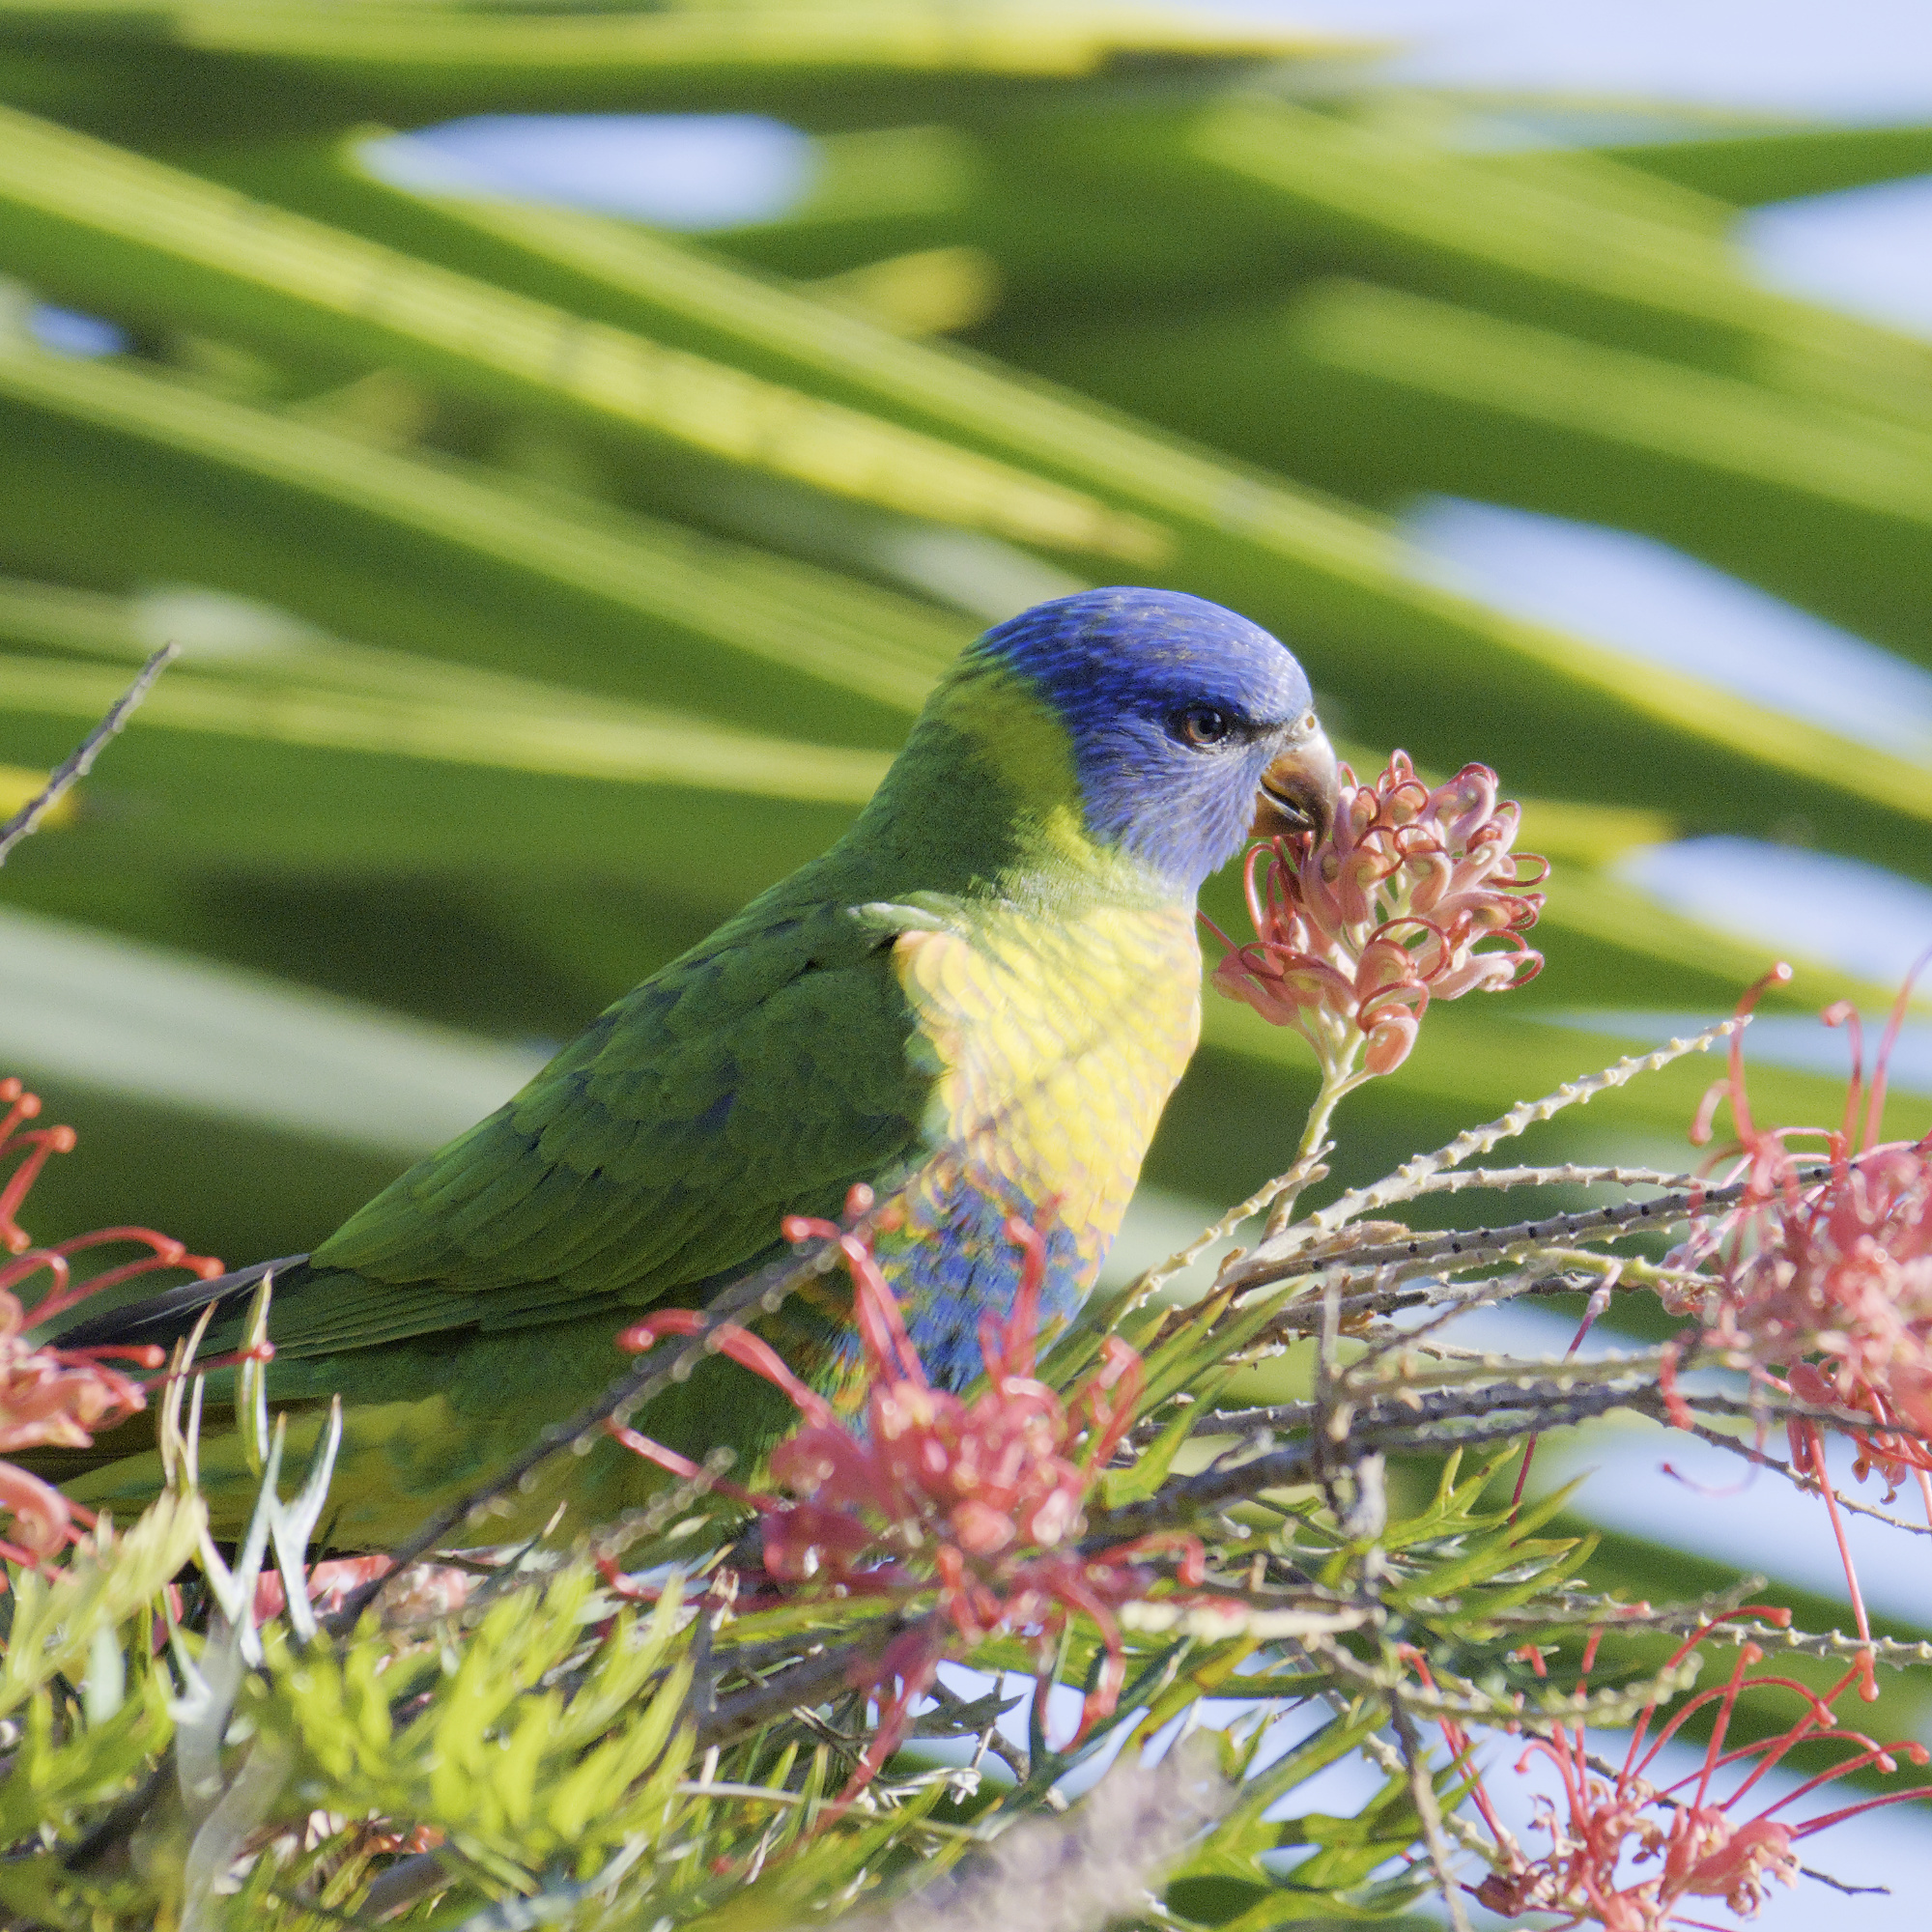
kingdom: Animalia
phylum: Chordata
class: Aves
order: Psittaciformes
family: Psittacidae
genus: Trichoglossus
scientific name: Trichoglossus haematodus
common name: Coconut lorikeet
